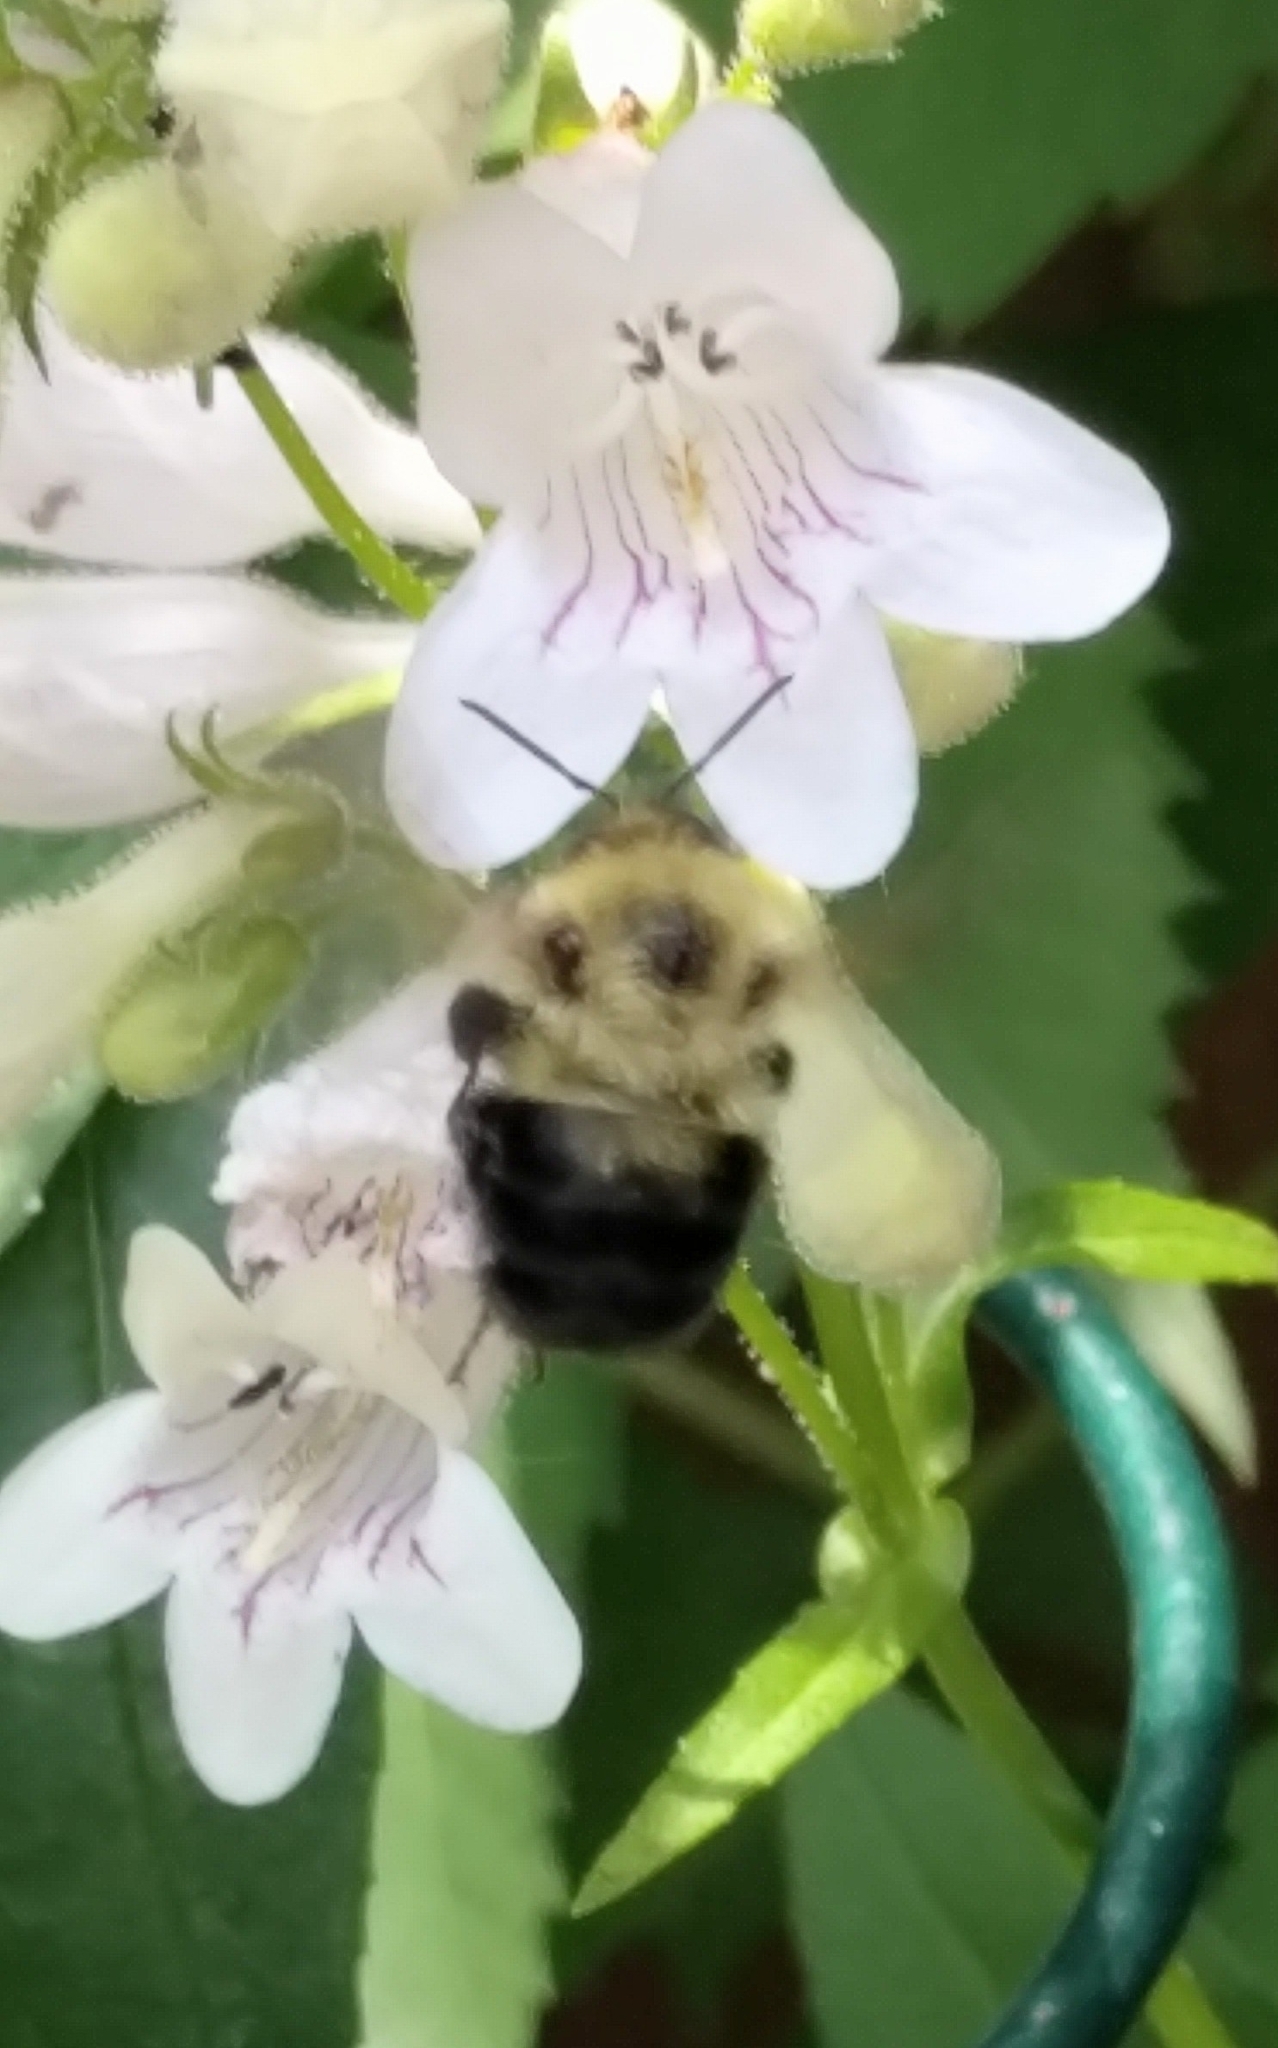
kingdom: Animalia
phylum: Arthropoda
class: Insecta
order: Hymenoptera
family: Apidae
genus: Bombus
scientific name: Bombus bimaculatus
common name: Two-spotted bumble bee
